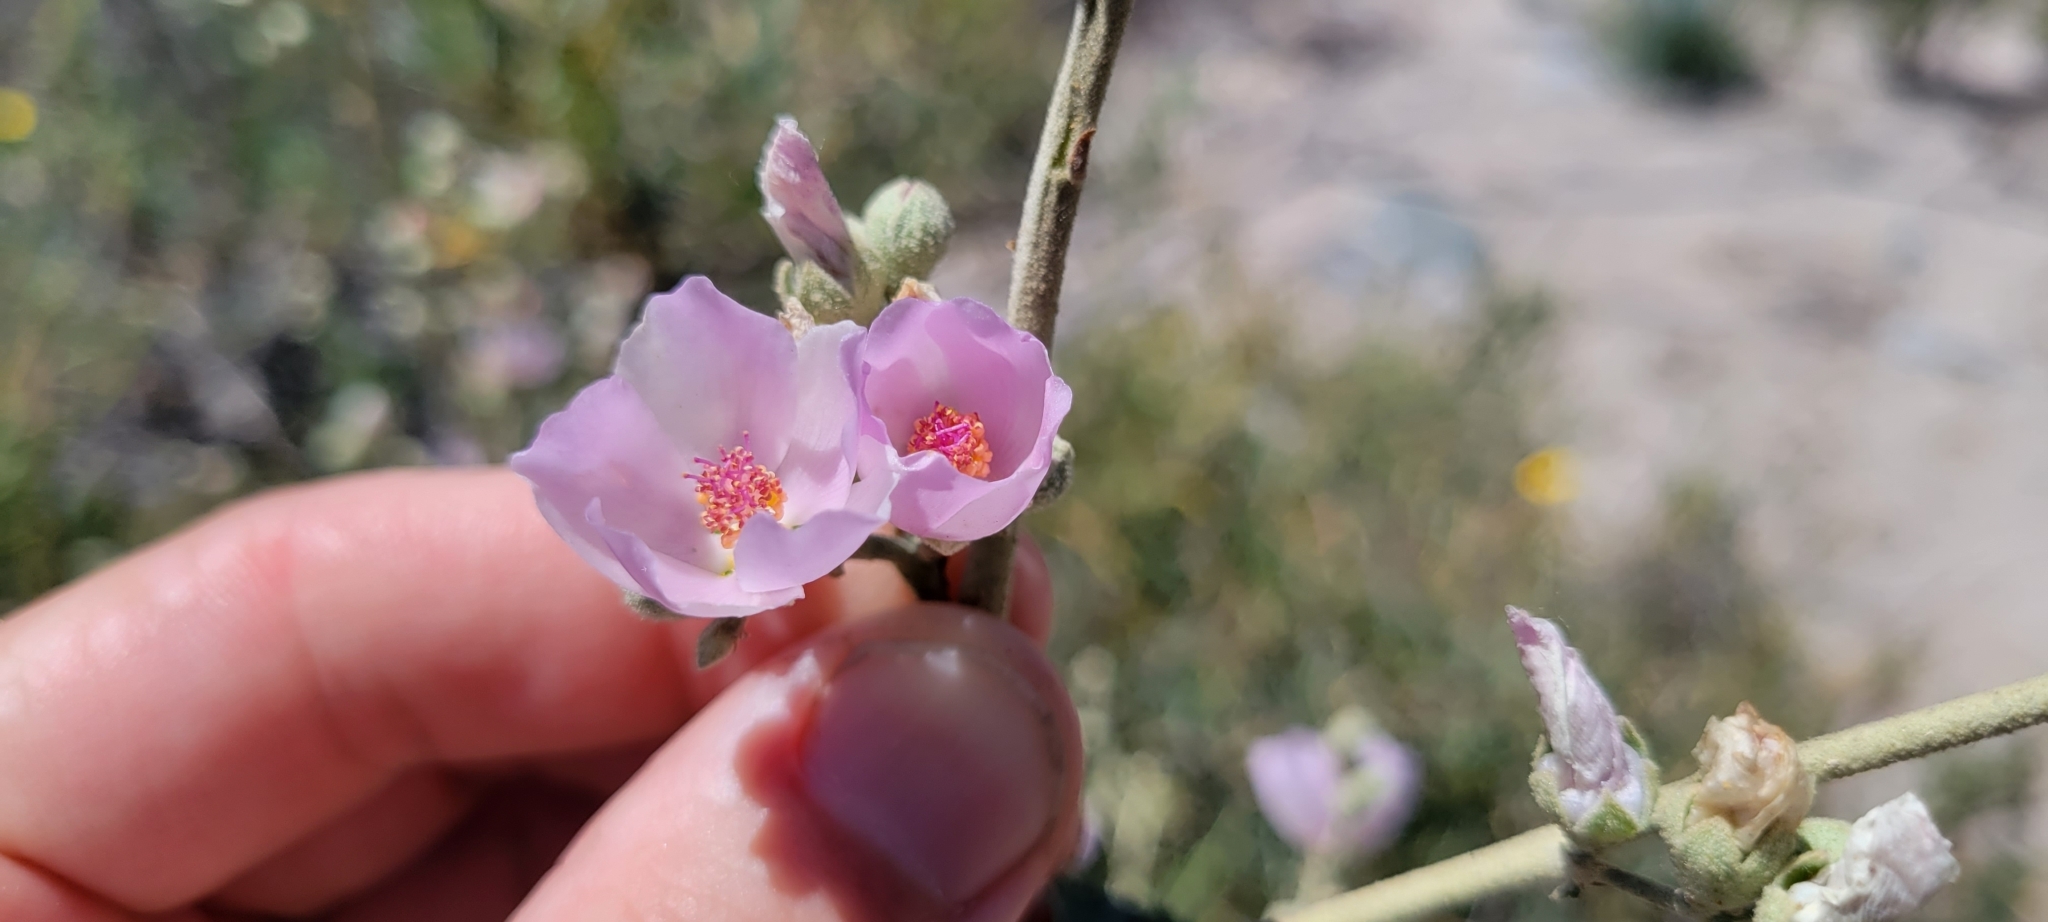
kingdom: Plantae
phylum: Tracheophyta
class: Magnoliopsida
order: Malvales
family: Malvaceae
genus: Malacothamnus
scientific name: Malacothamnus fasciculatus
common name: Sant cruz island bush-mallow
